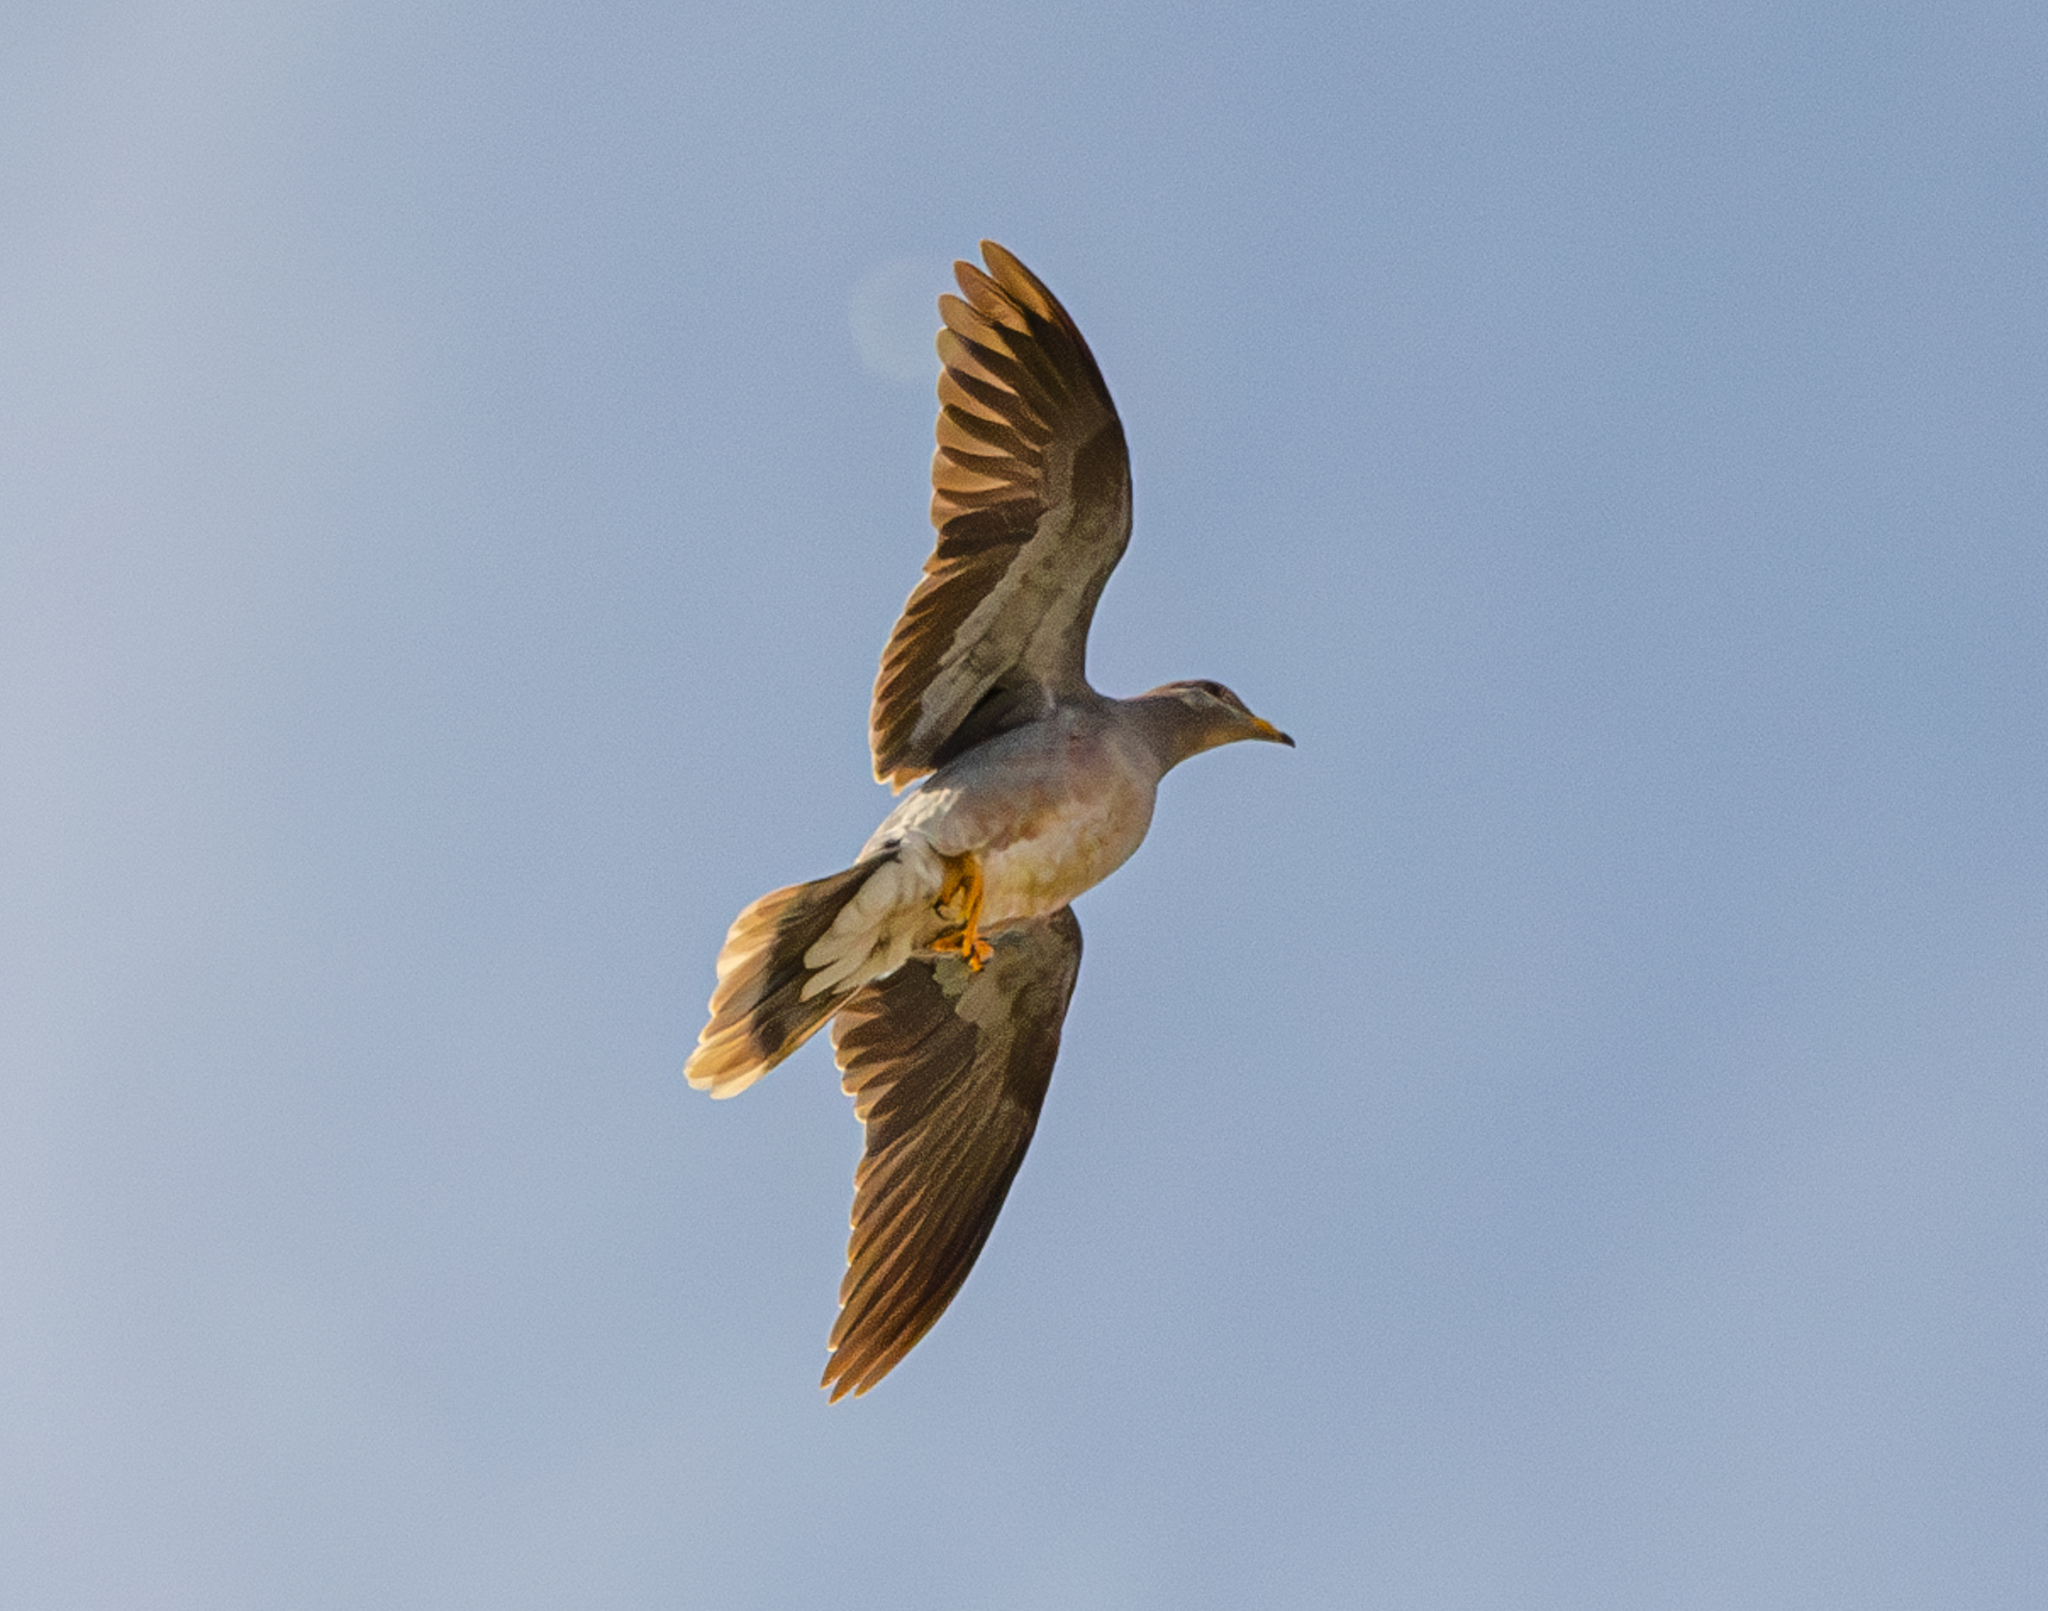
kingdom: Animalia
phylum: Chordata
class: Aves
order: Columbiformes
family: Columbidae
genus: Patagioenas
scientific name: Patagioenas fasciata
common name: Band-tailed pigeon
